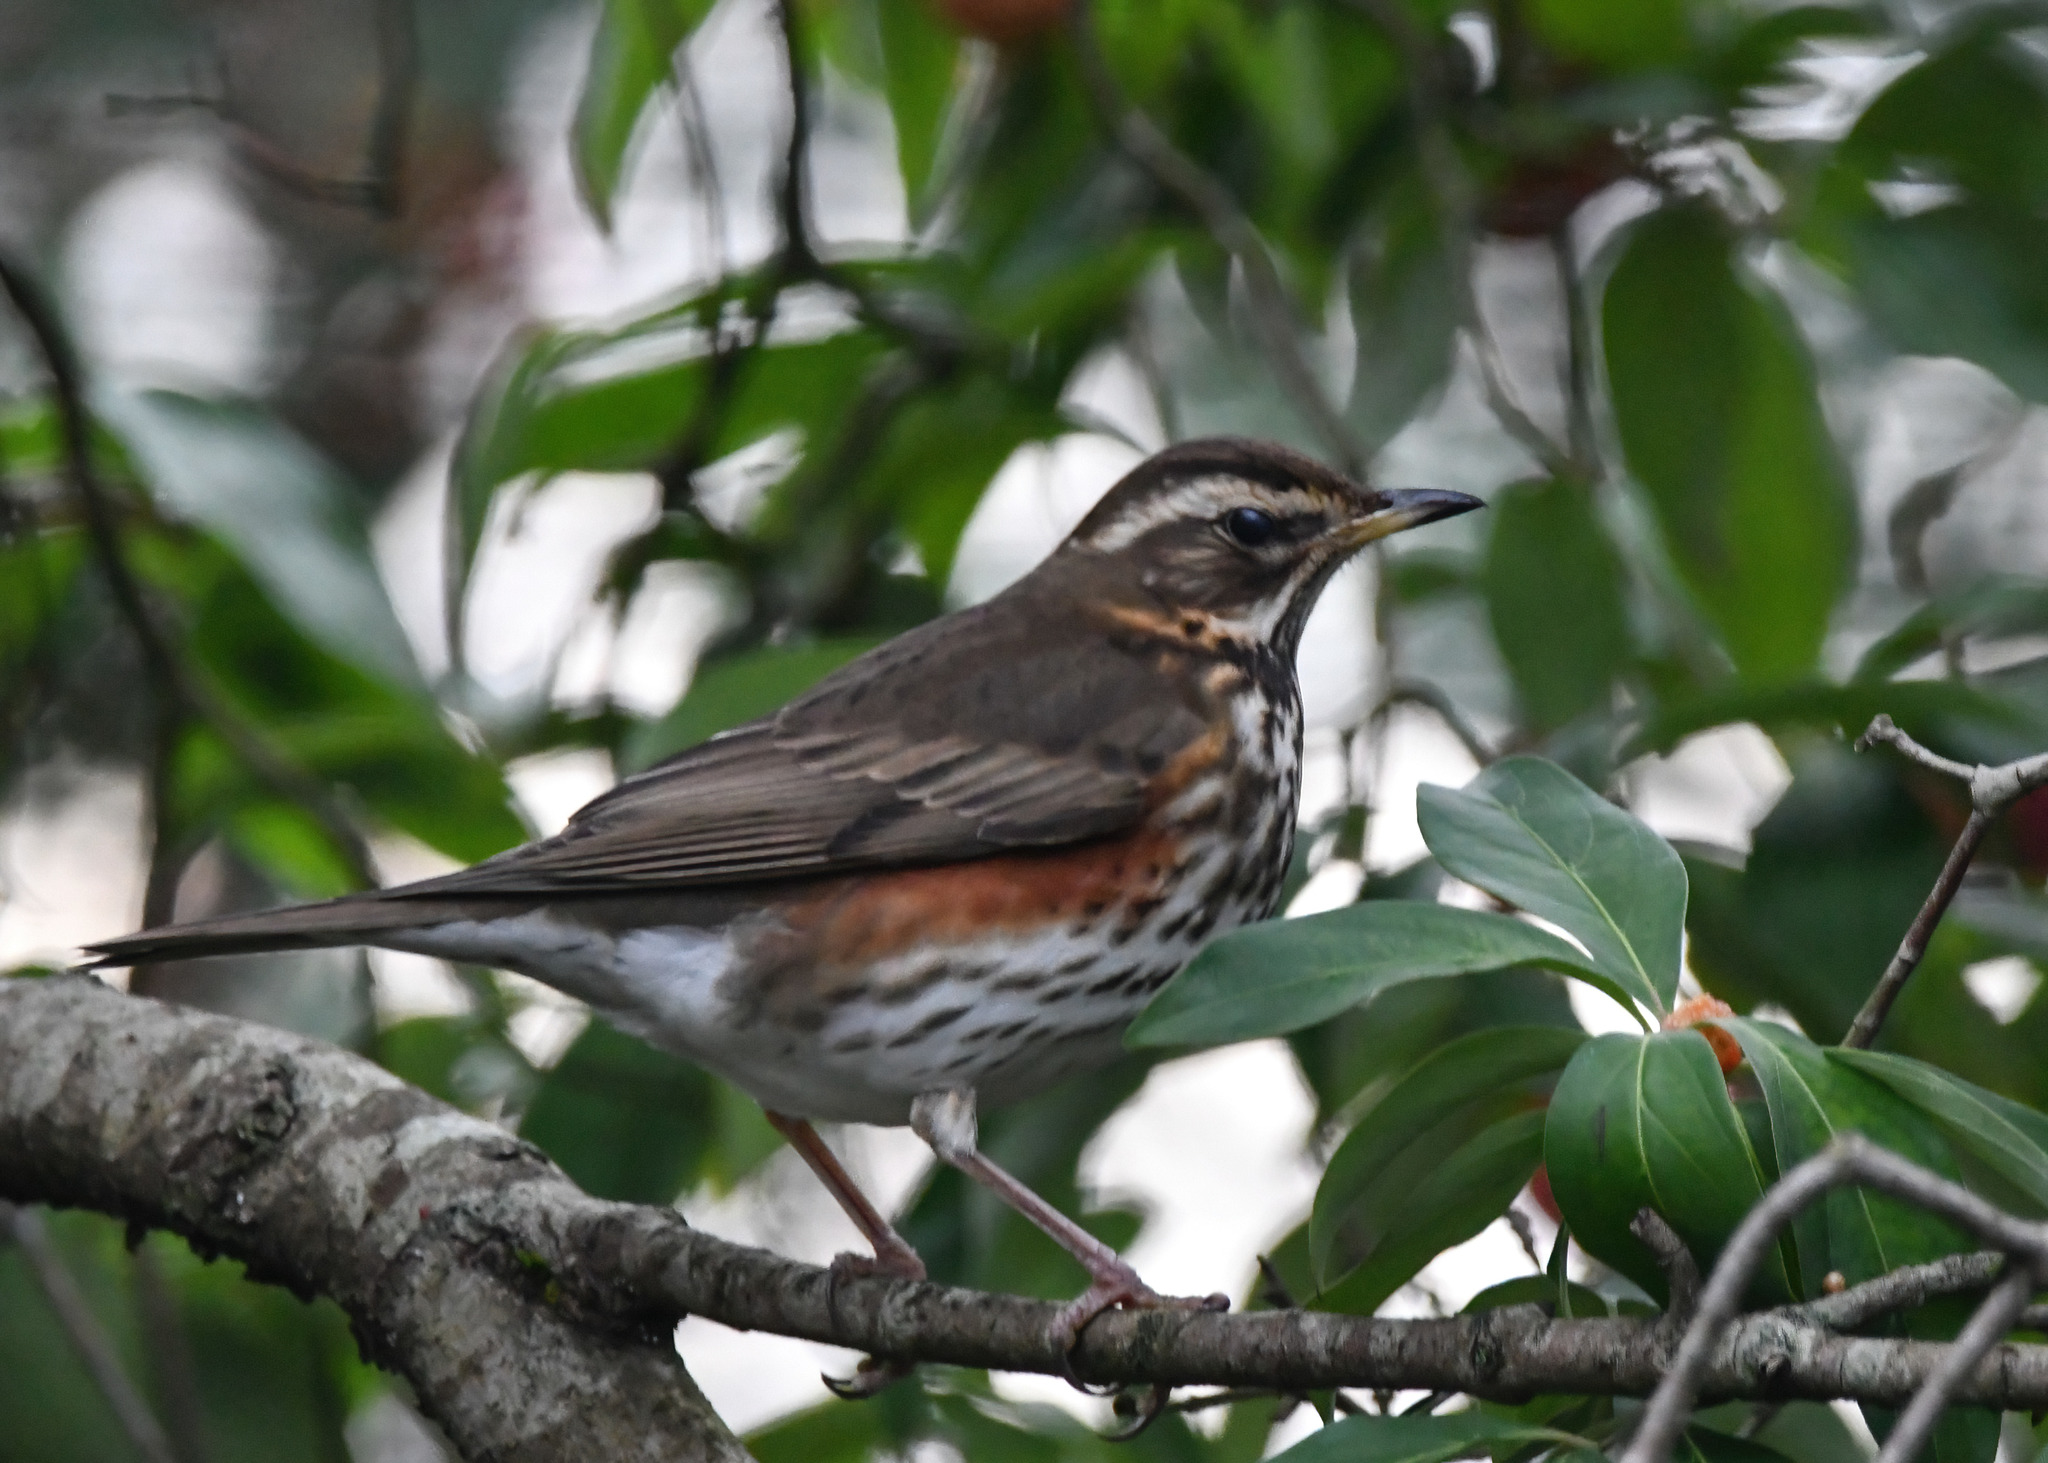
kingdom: Animalia
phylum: Chordata
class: Aves
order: Passeriformes
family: Turdidae
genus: Turdus
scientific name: Turdus iliacus
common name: Redwing
